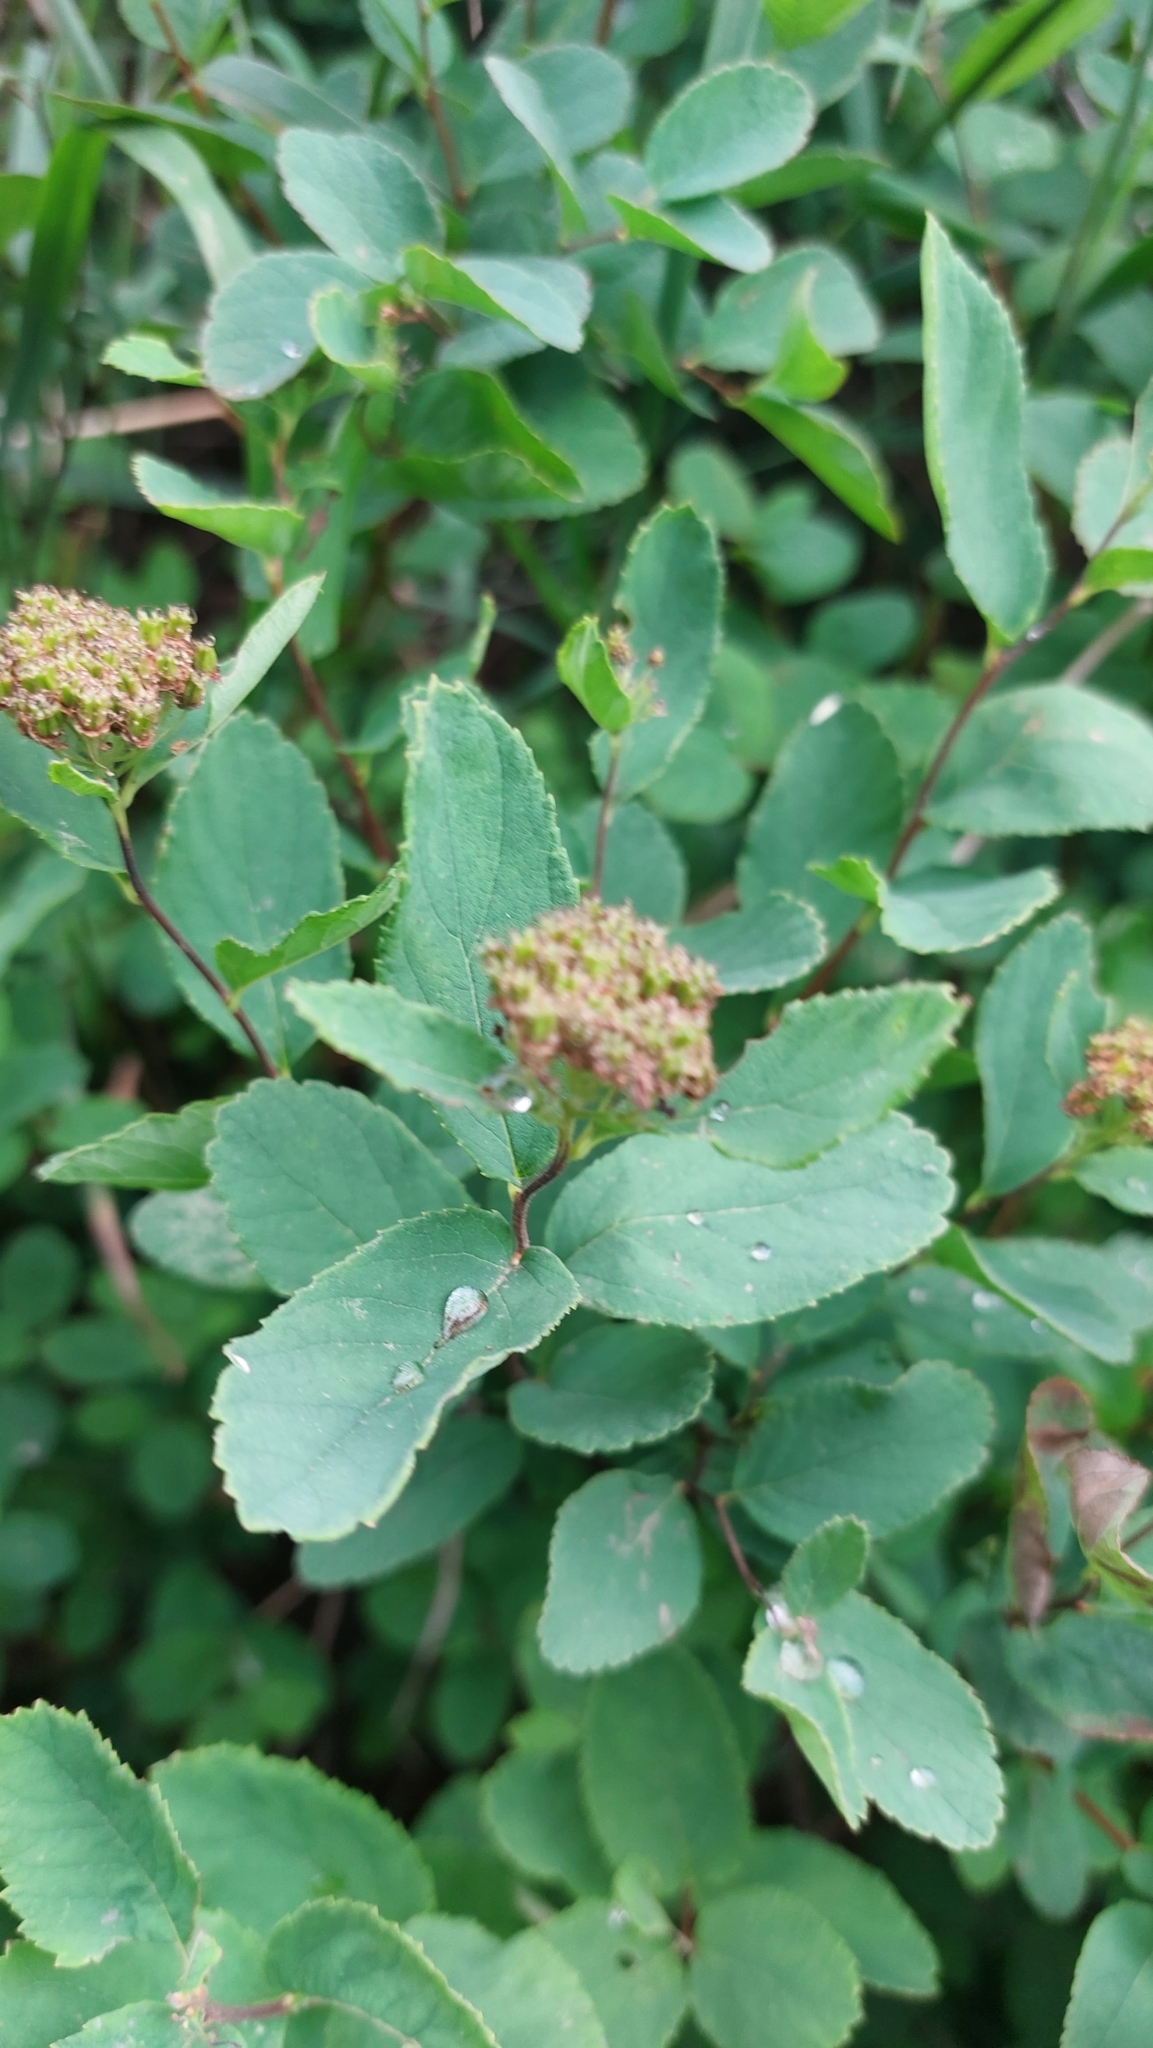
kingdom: Plantae
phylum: Tracheophyta
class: Magnoliopsida
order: Rosales
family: Rosaceae
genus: Spiraea
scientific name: Spiraea betulifolia
